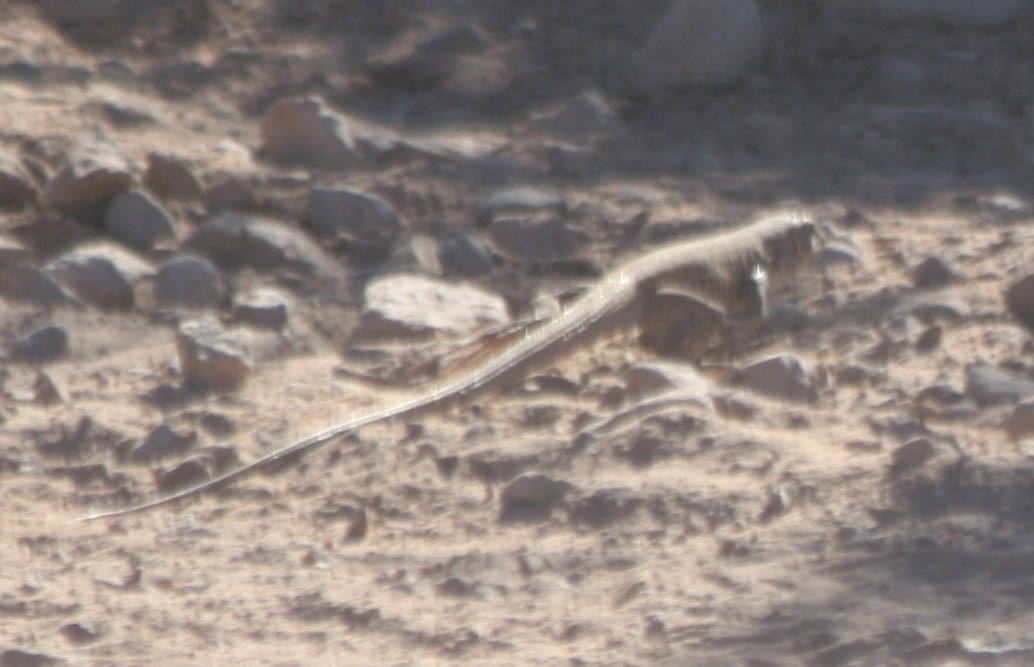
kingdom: Animalia
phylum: Chordata
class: Squamata
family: Teiidae
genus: Aspidoscelis
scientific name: Aspidoscelis tigris
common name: Tiger whiptail
